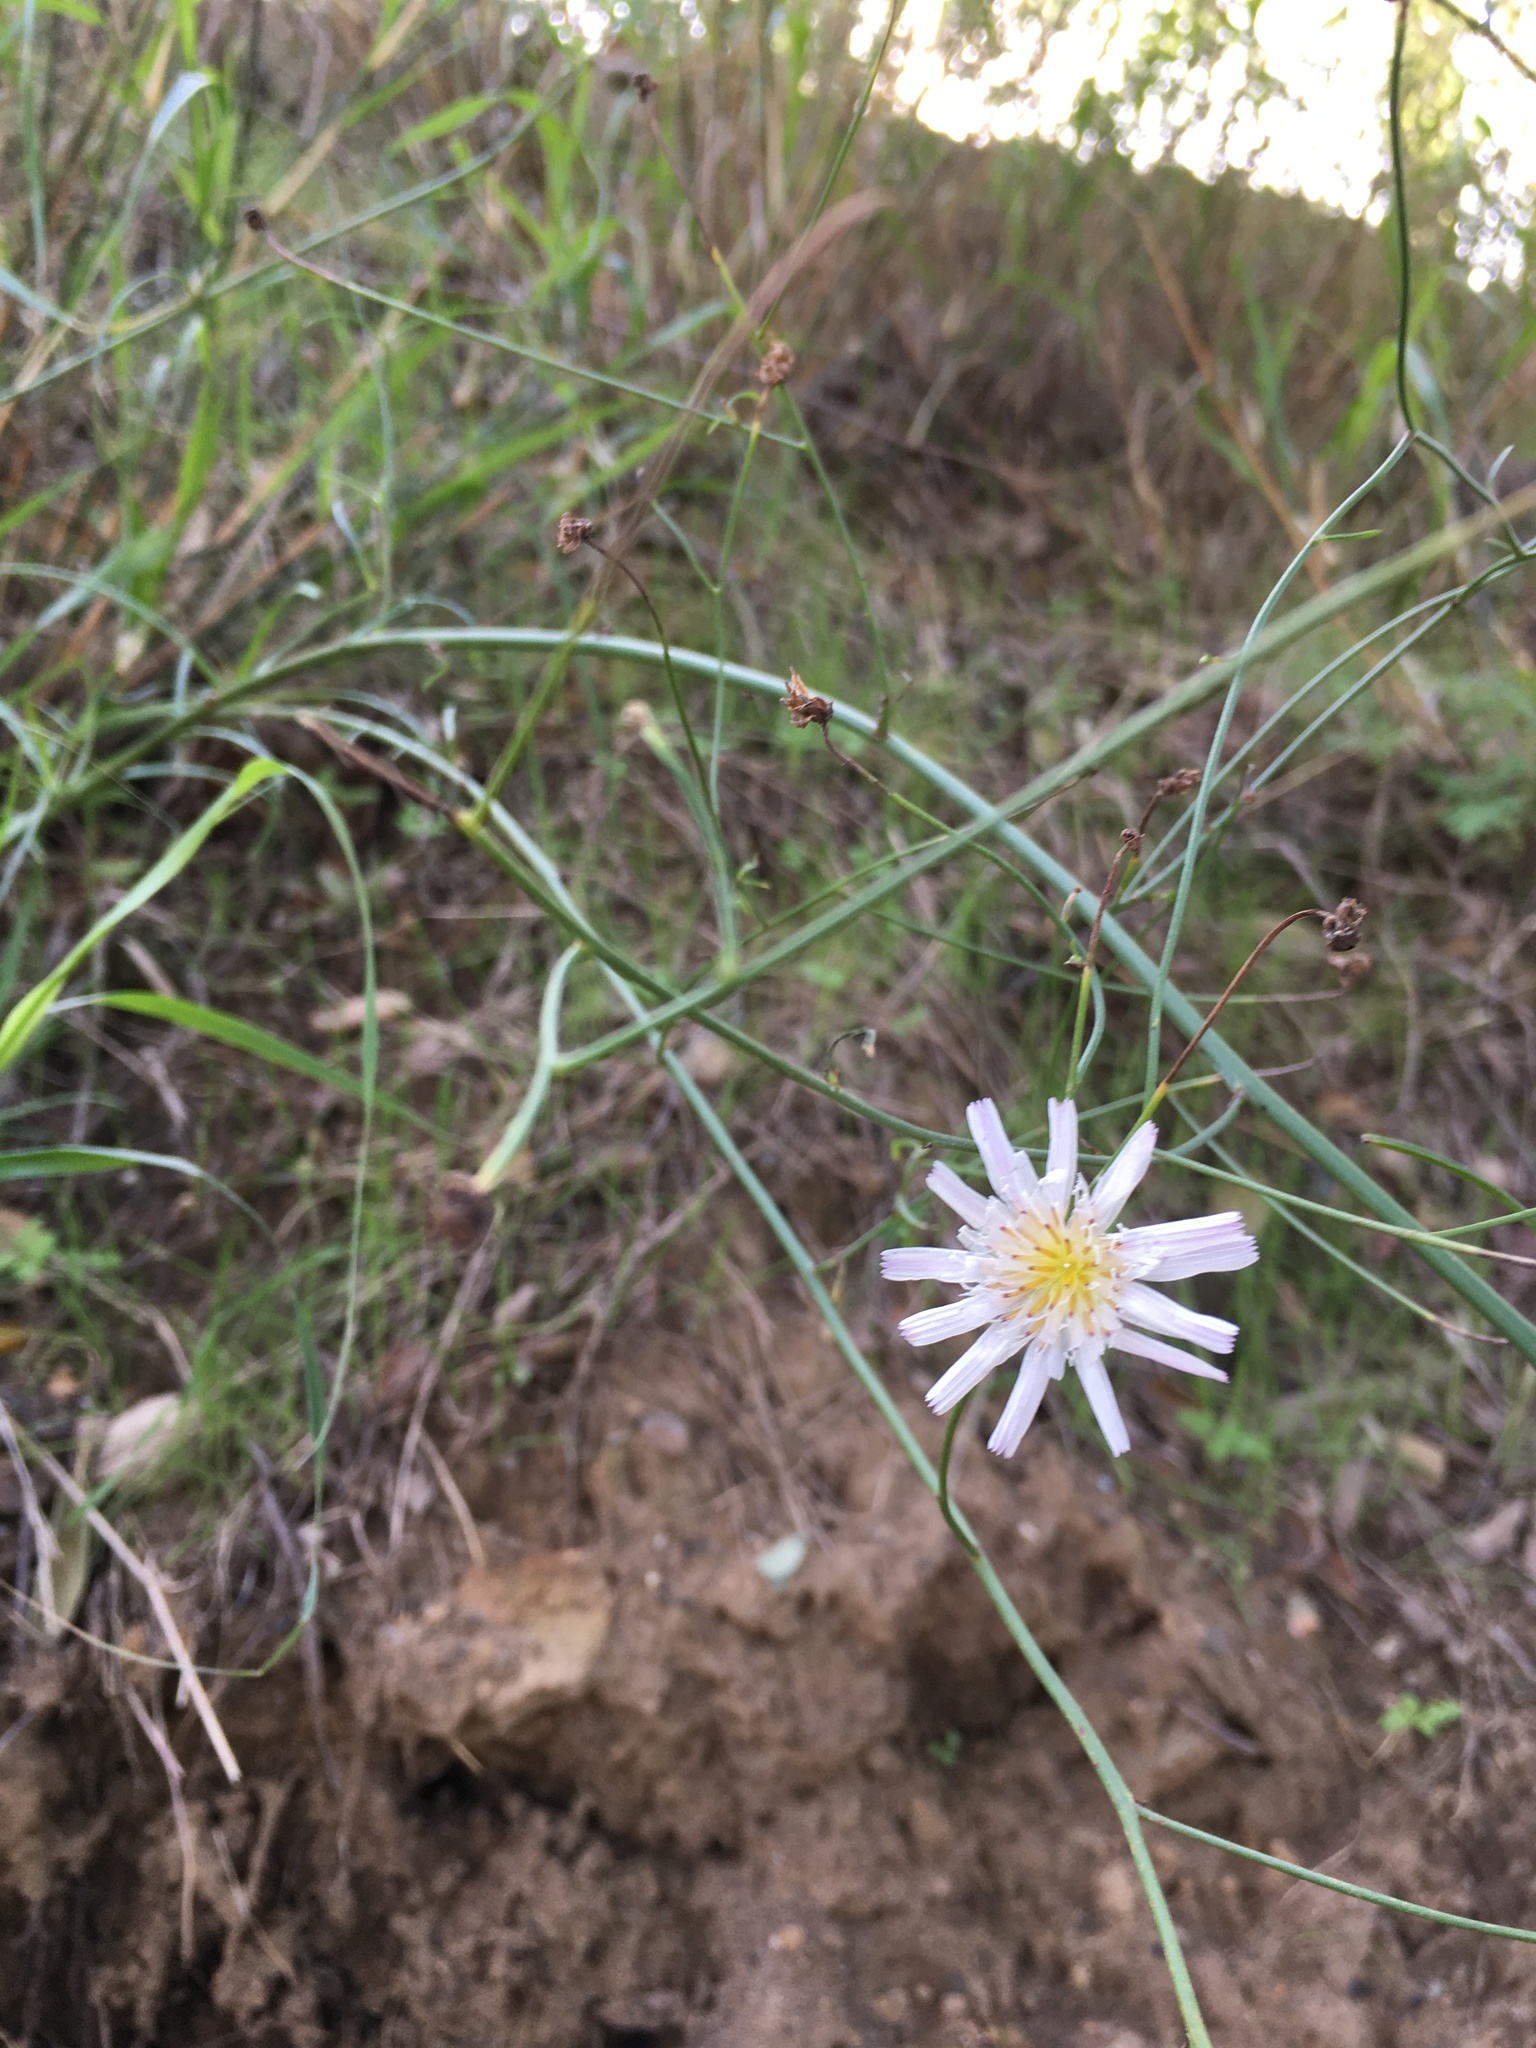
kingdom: Plantae
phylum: Tracheophyta
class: Magnoliopsida
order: Asterales
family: Asteraceae
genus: Malacothrix
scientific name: Malacothrix saxatilis
